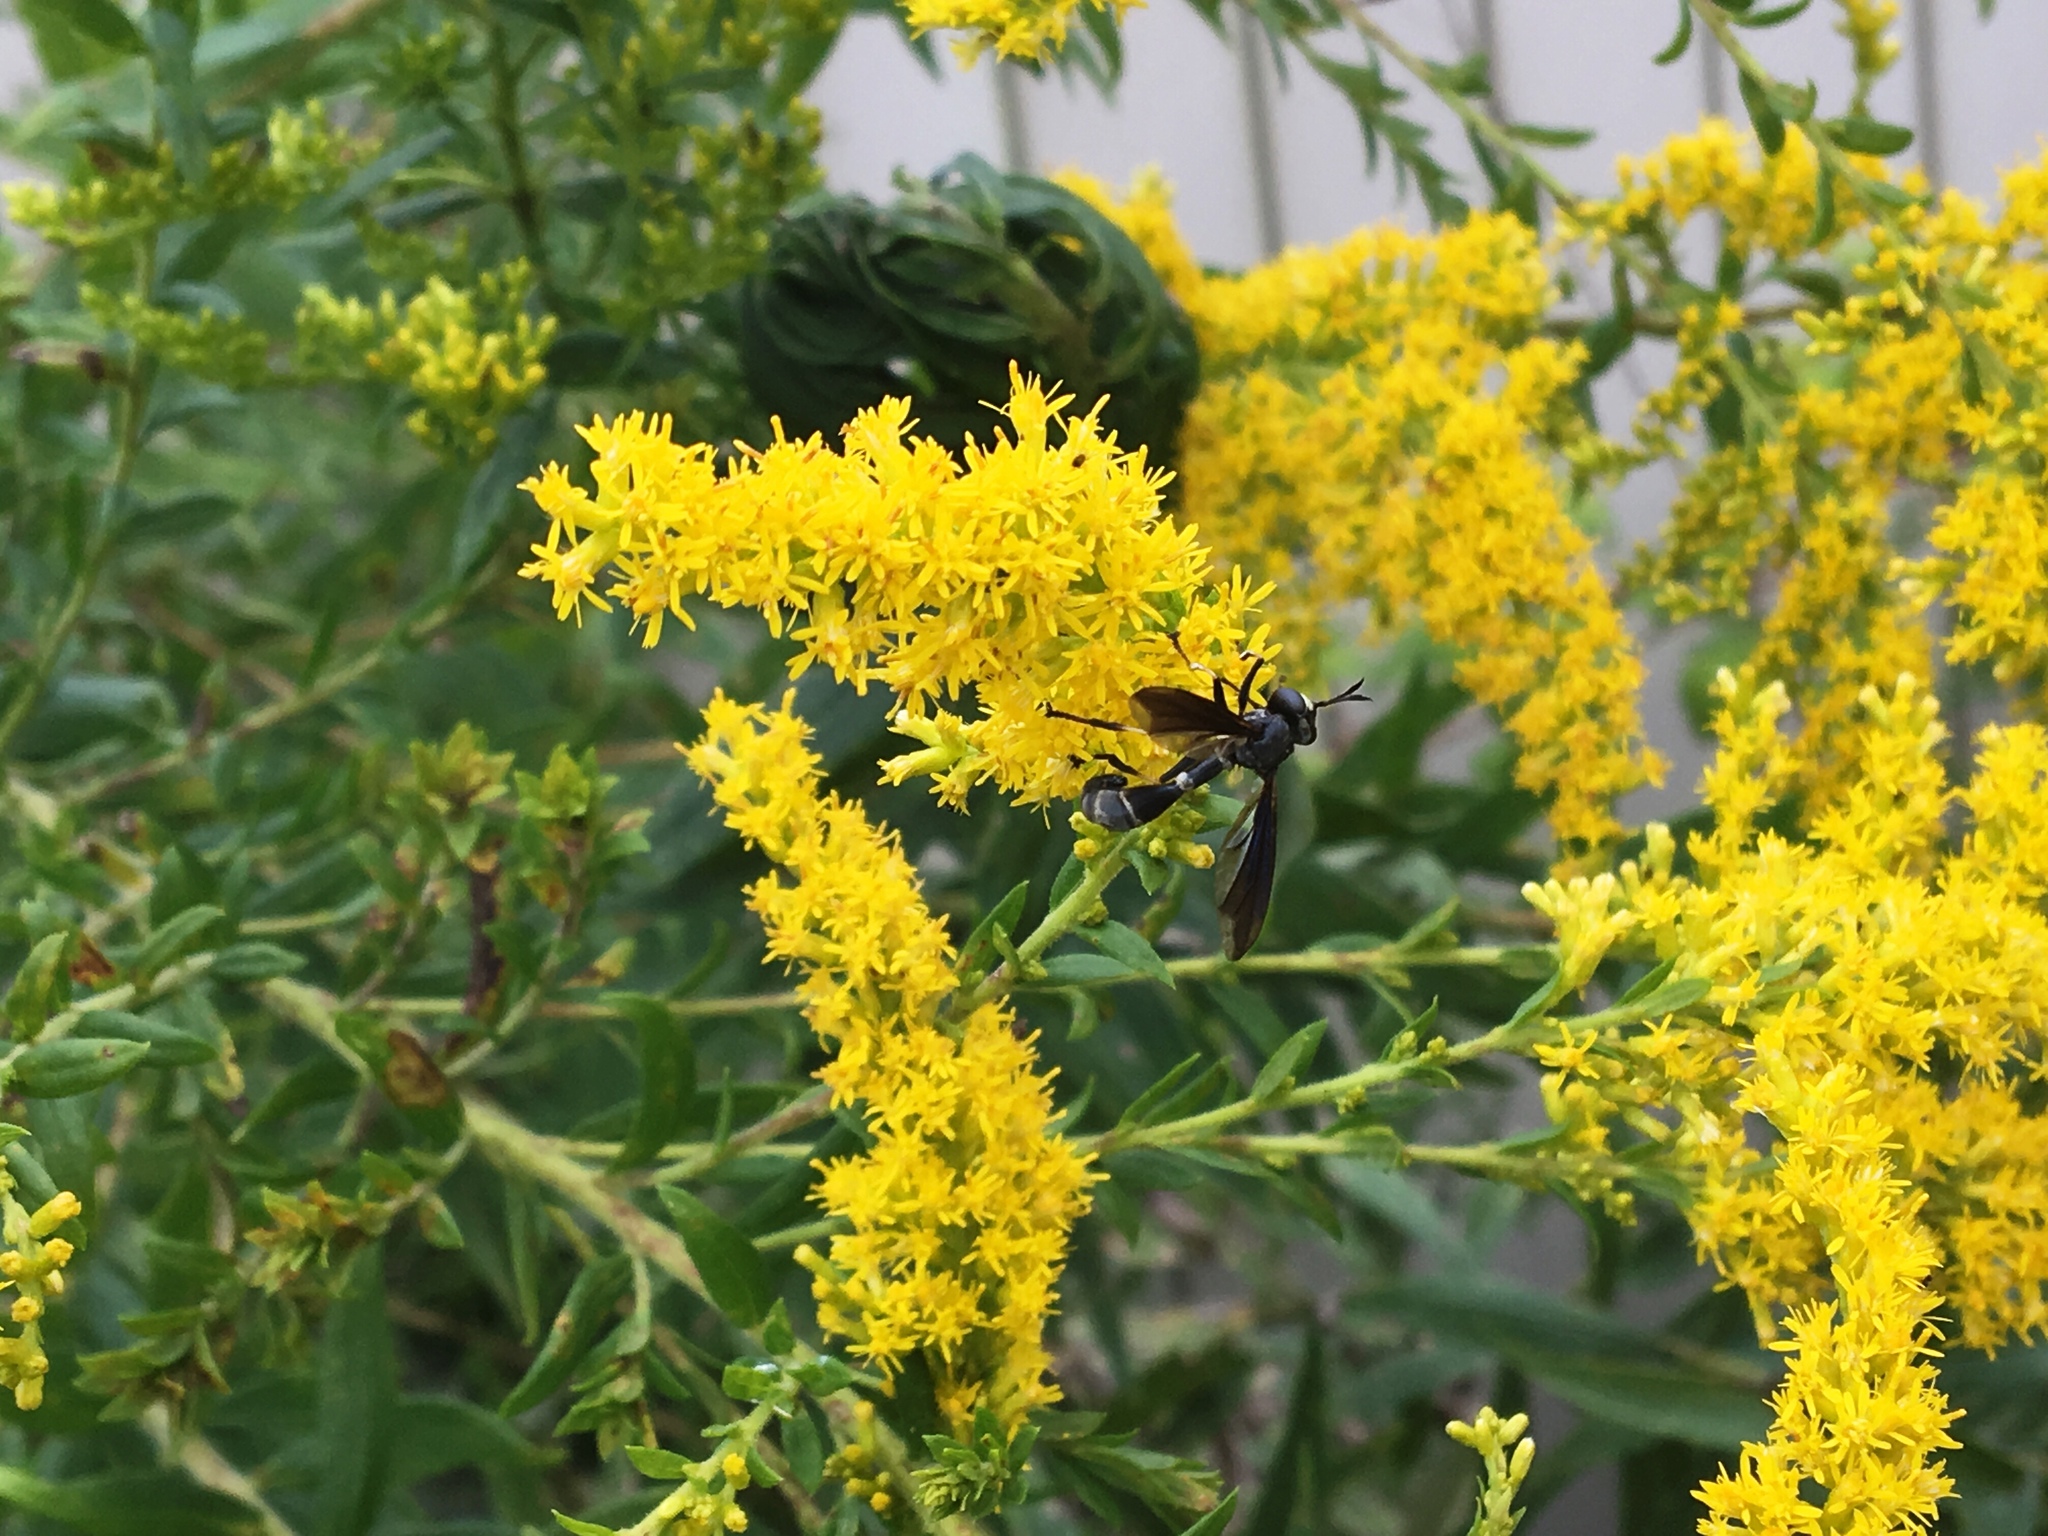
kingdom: Animalia
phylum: Arthropoda
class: Insecta
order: Diptera
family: Conopidae
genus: Physocephala
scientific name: Physocephala tibialis
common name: Common eastern physocephala
